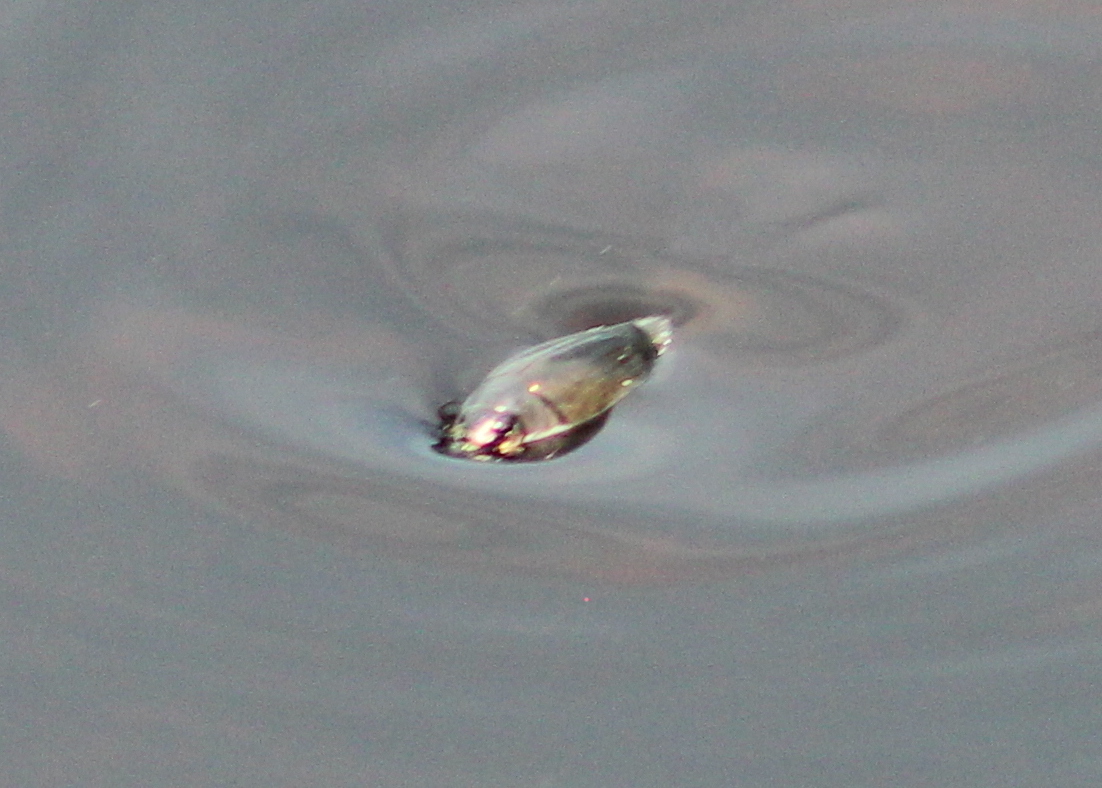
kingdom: Animalia
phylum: Arthropoda
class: Insecta
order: Coleoptera
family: Gyrinidae
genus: Dineutus
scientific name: Dineutus
